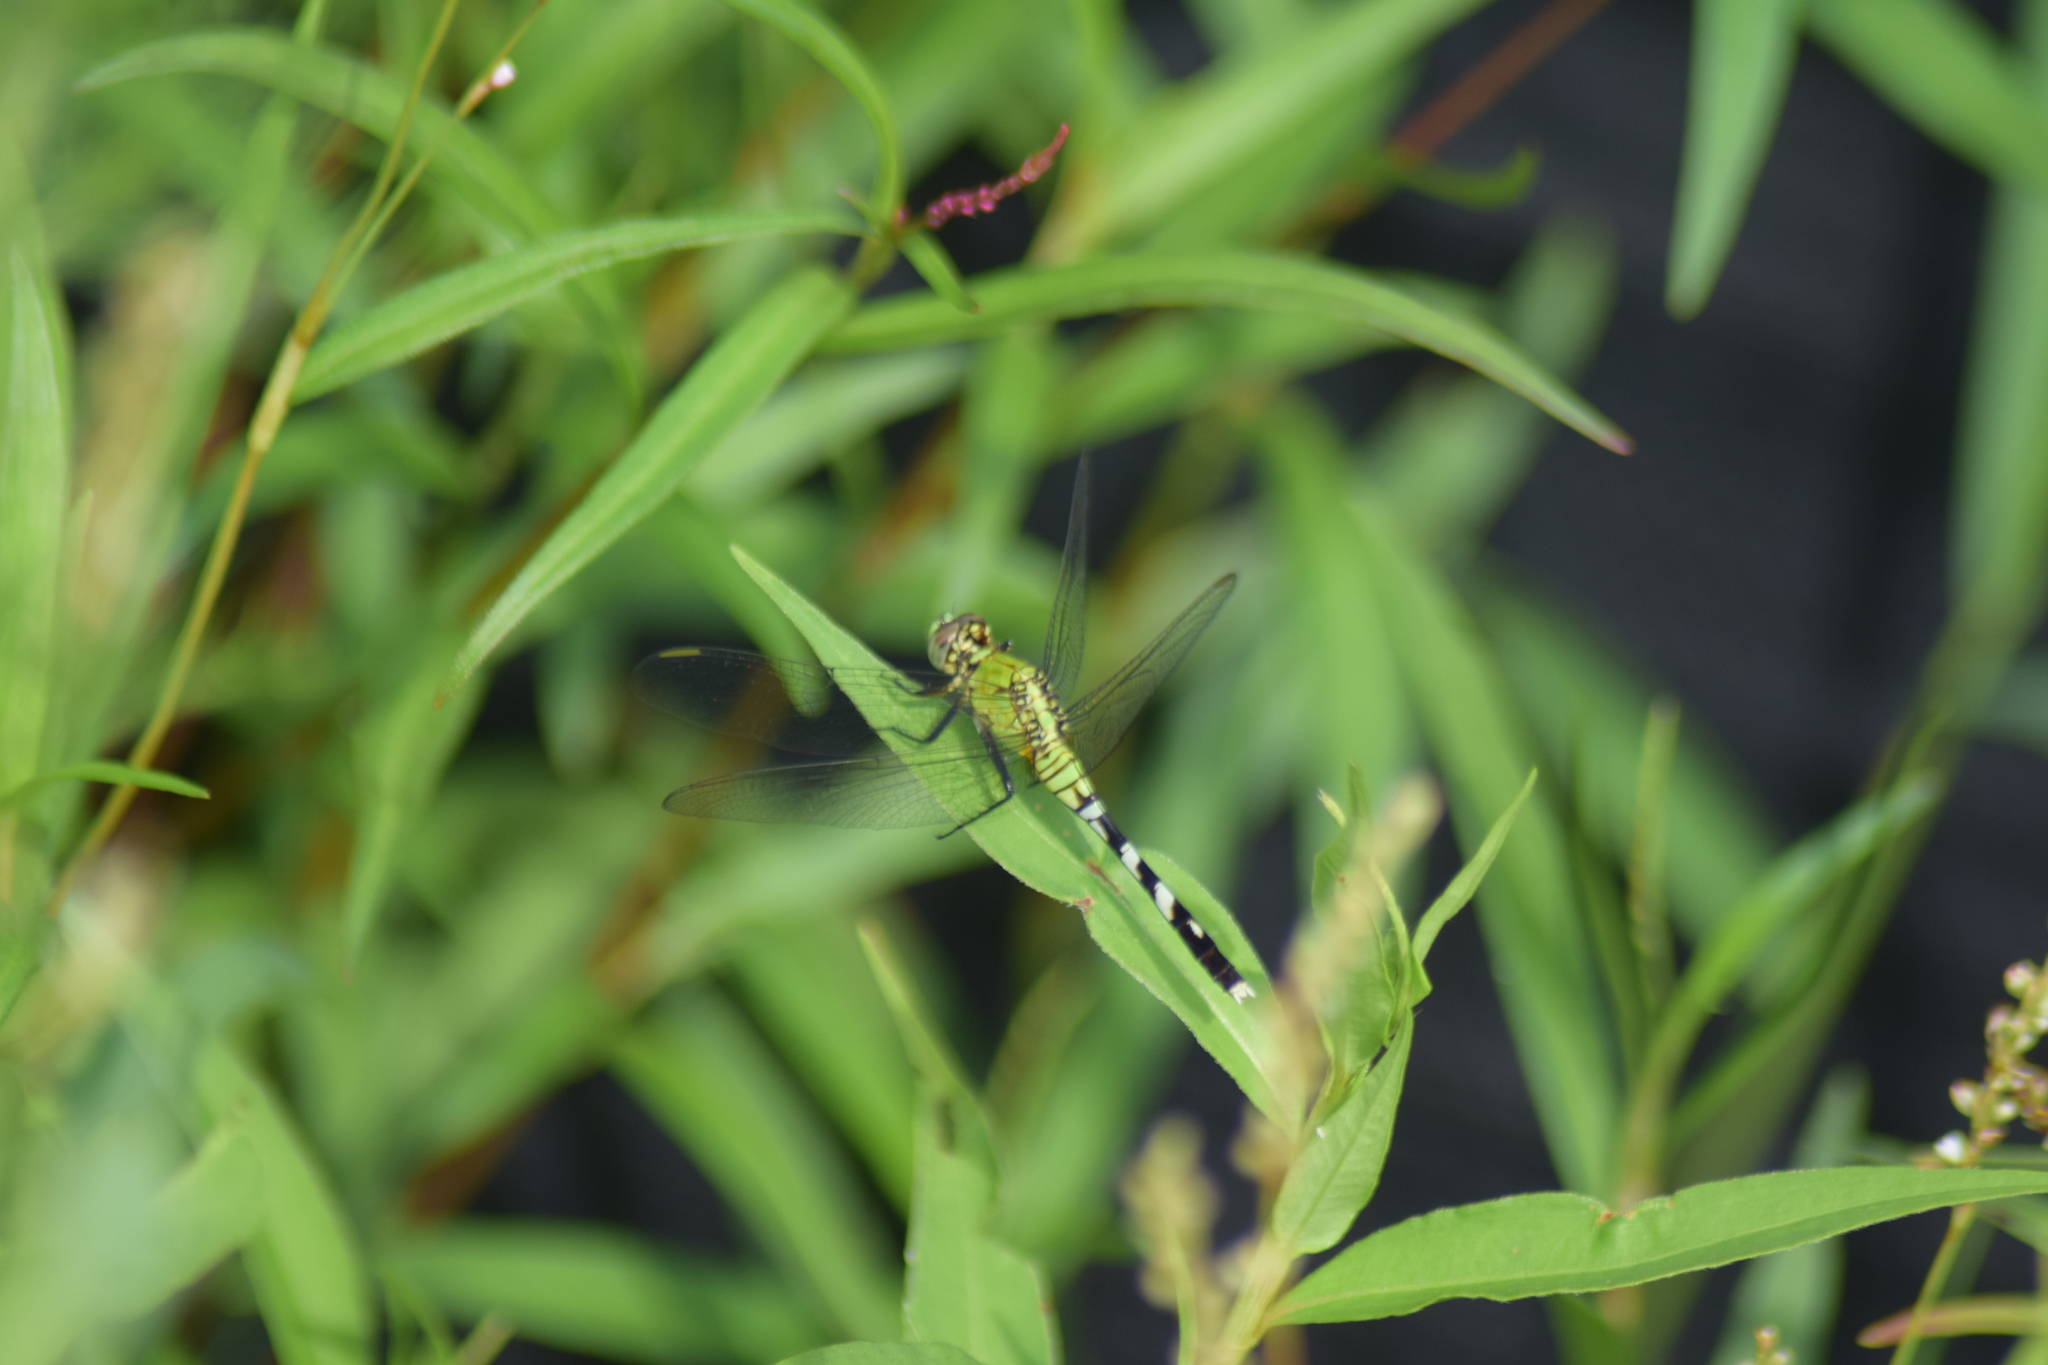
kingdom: Animalia
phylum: Arthropoda
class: Insecta
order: Odonata
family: Libellulidae
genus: Erythemis
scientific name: Erythemis simplicicollis
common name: Eastern pondhawk
